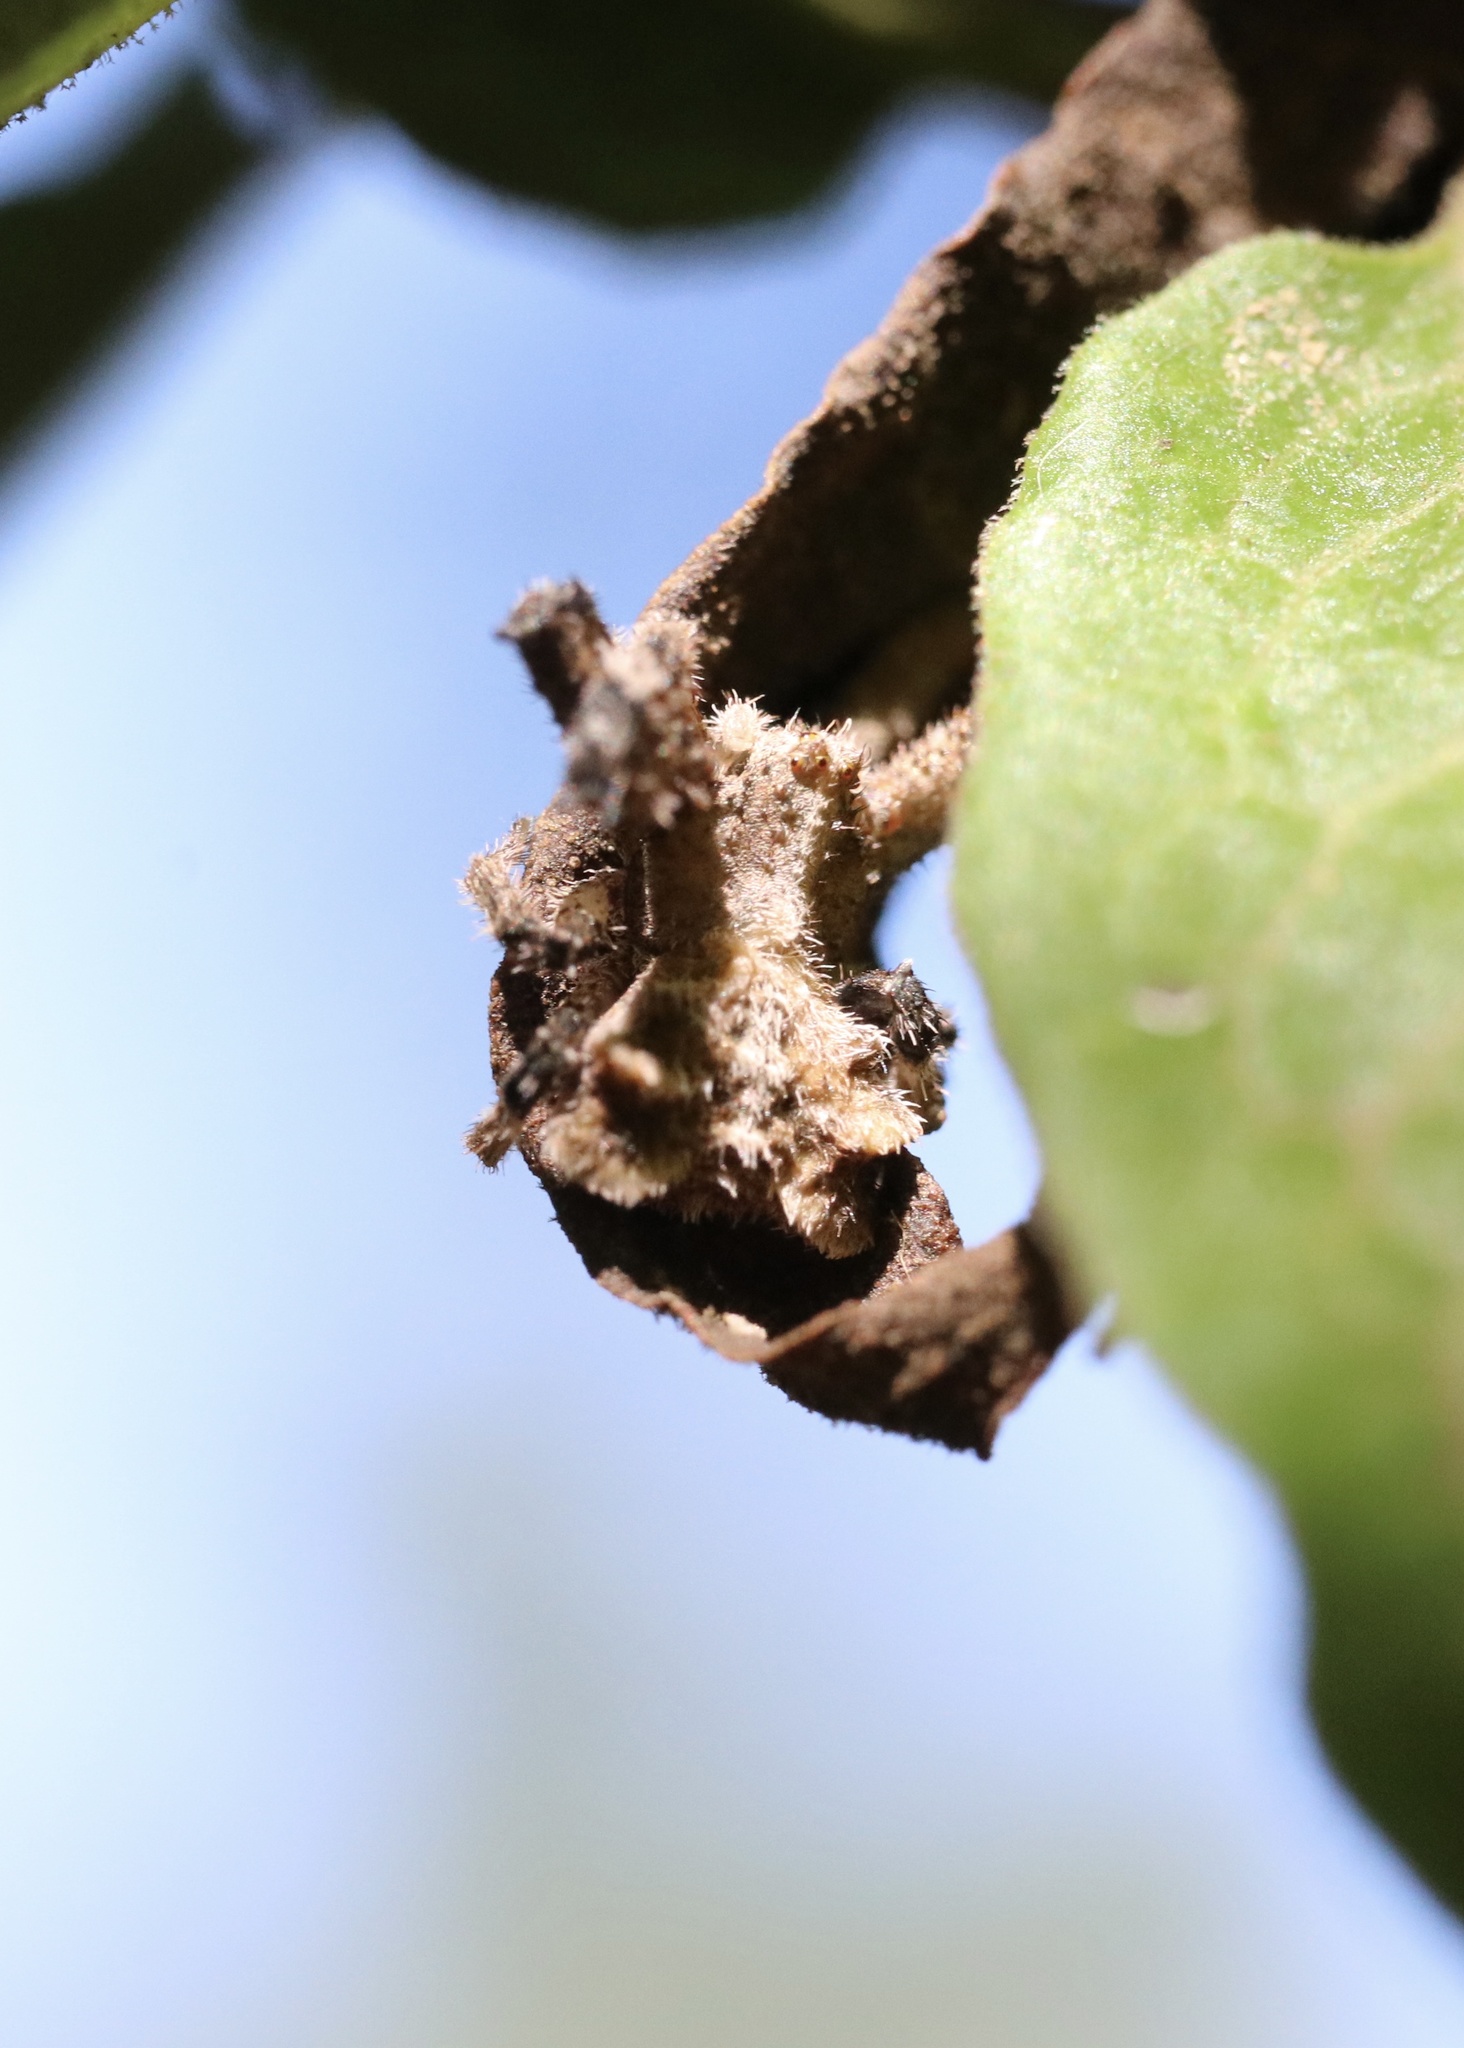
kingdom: Animalia
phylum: Arthropoda
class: Arachnida
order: Araneae
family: Thomisidae
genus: Coenypha
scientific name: Coenypha ditissima
